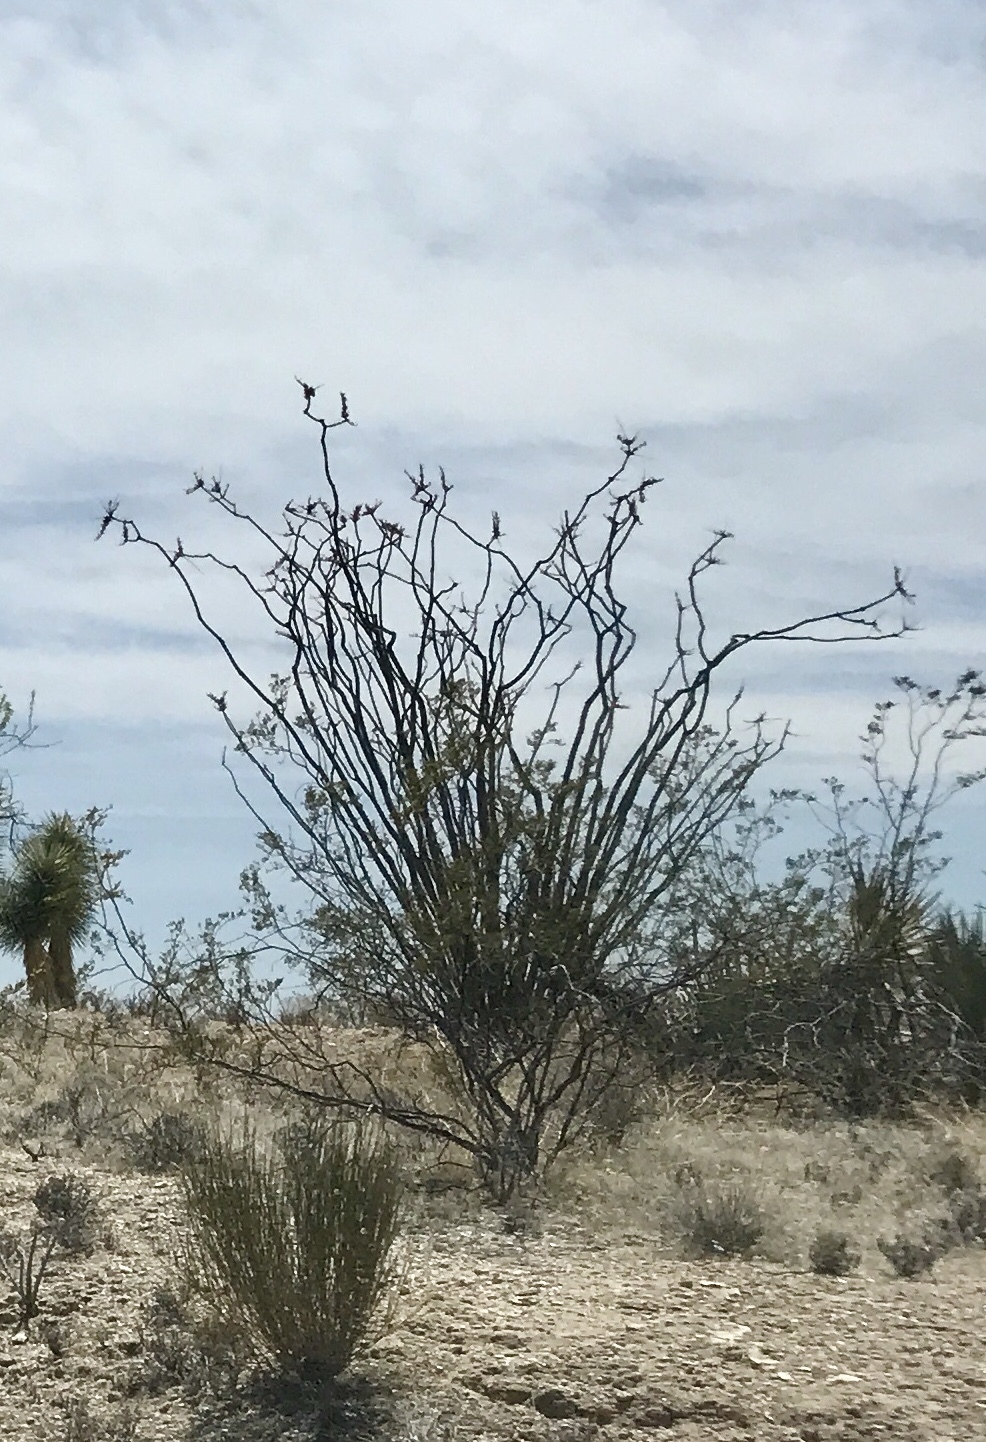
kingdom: Plantae
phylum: Tracheophyta
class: Magnoliopsida
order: Ericales
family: Fouquieriaceae
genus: Fouquieria
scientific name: Fouquieria splendens
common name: Vine-cactus
